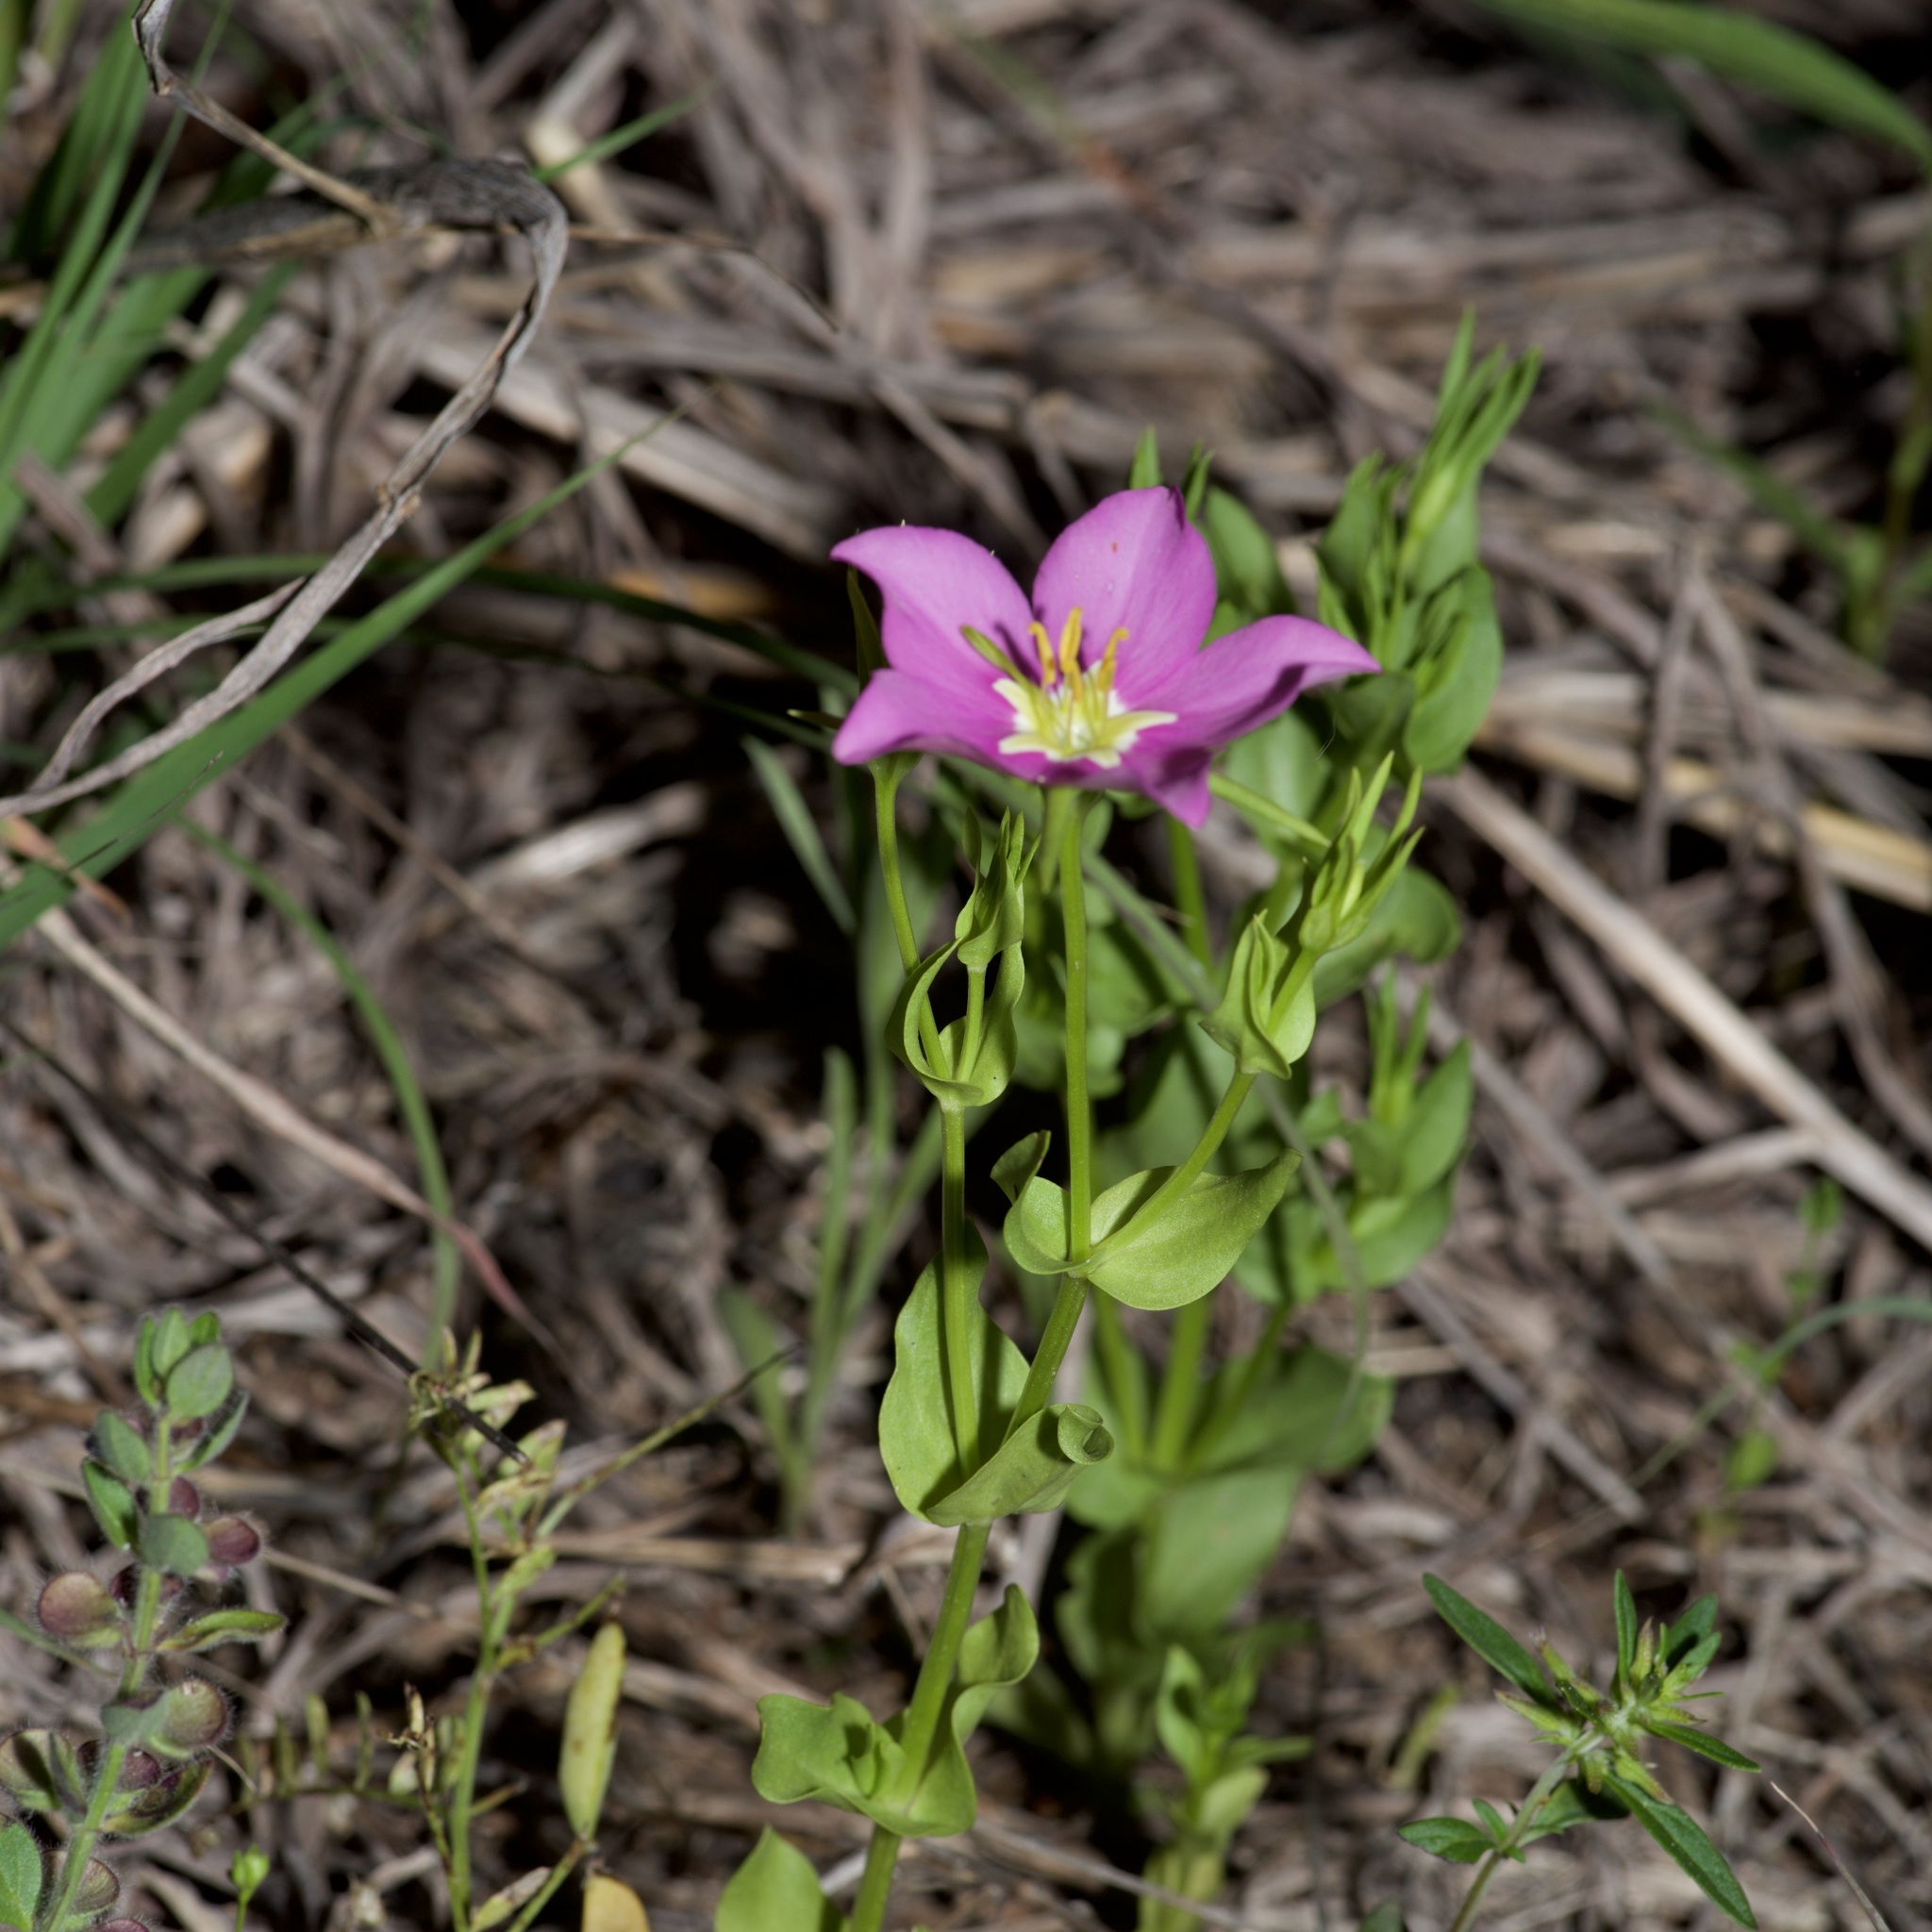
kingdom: Plantae
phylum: Tracheophyta
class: Magnoliopsida
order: Gentianales
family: Gentianaceae
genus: Sabatia
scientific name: Sabatia campestris
